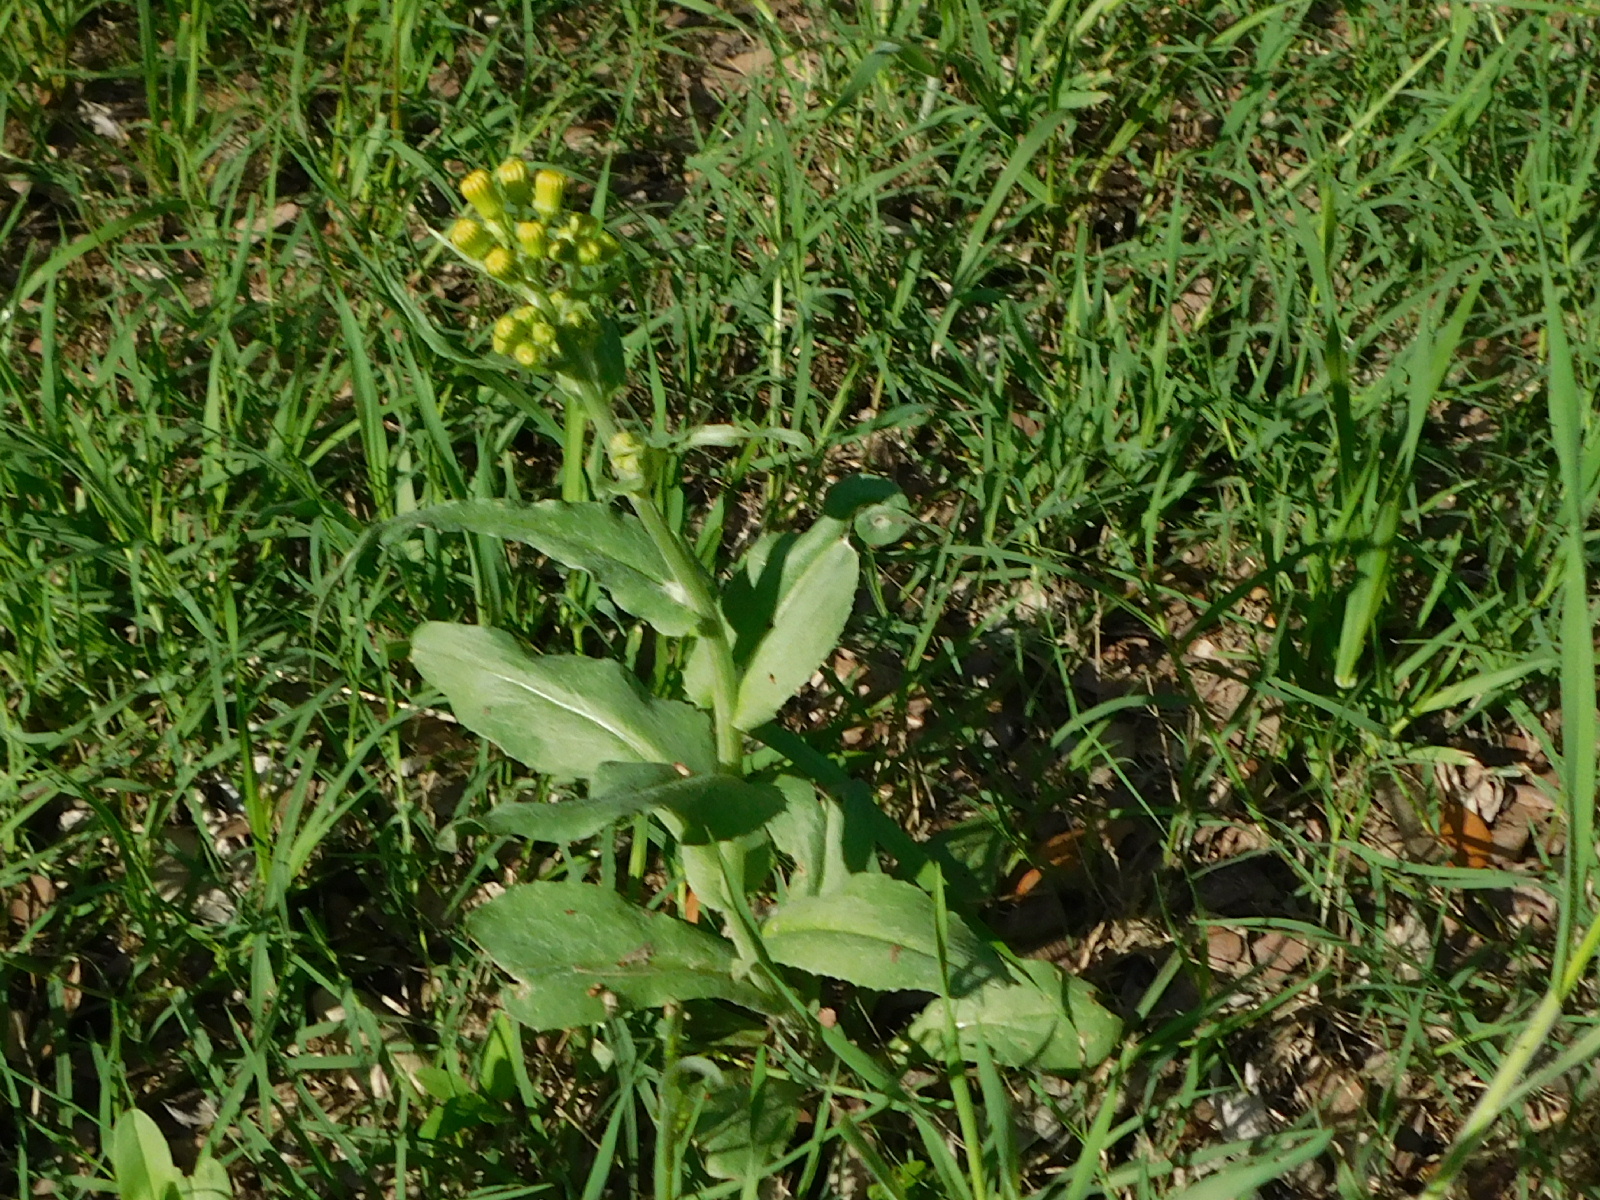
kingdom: Plantae
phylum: Tracheophyta
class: Magnoliopsida
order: Asterales
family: Asteraceae
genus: Senecio
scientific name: Senecio ampullaceus
